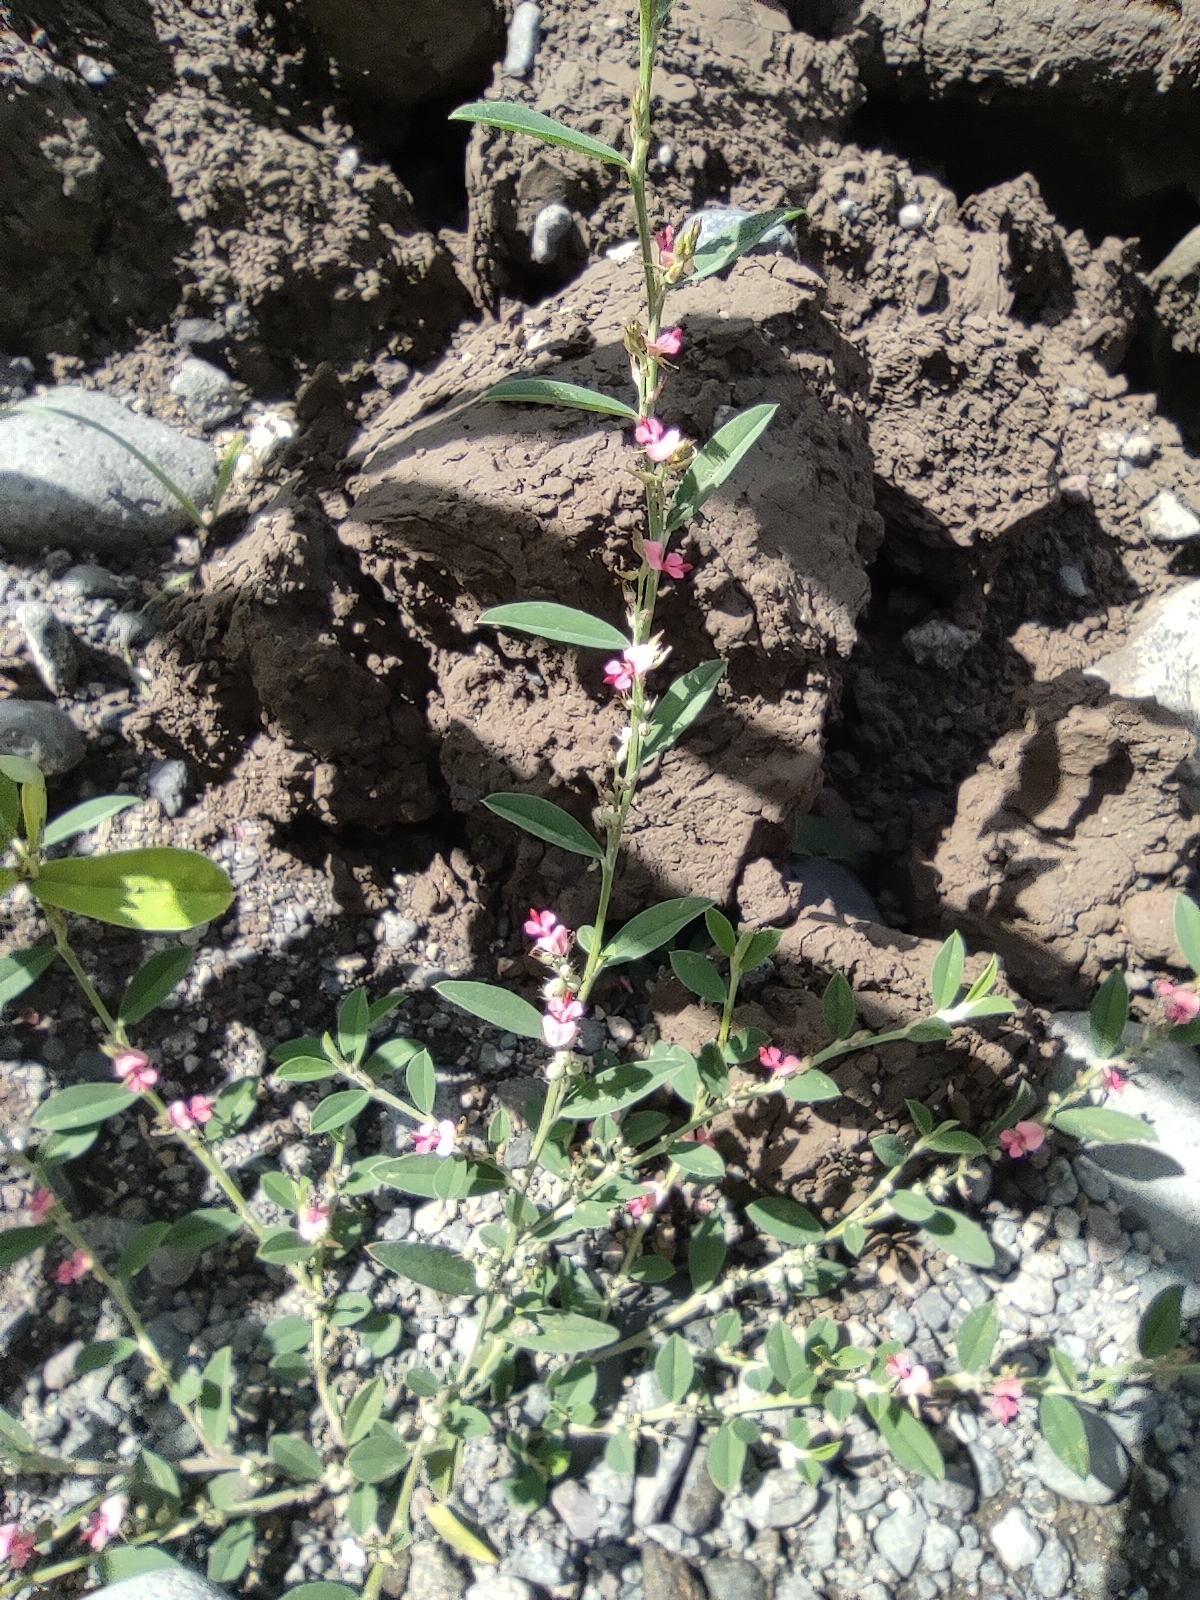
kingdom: Plantae
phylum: Tracheophyta
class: Magnoliopsida
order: Fabales
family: Fabaceae
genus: Indigofera
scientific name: Indigofera linifolia
